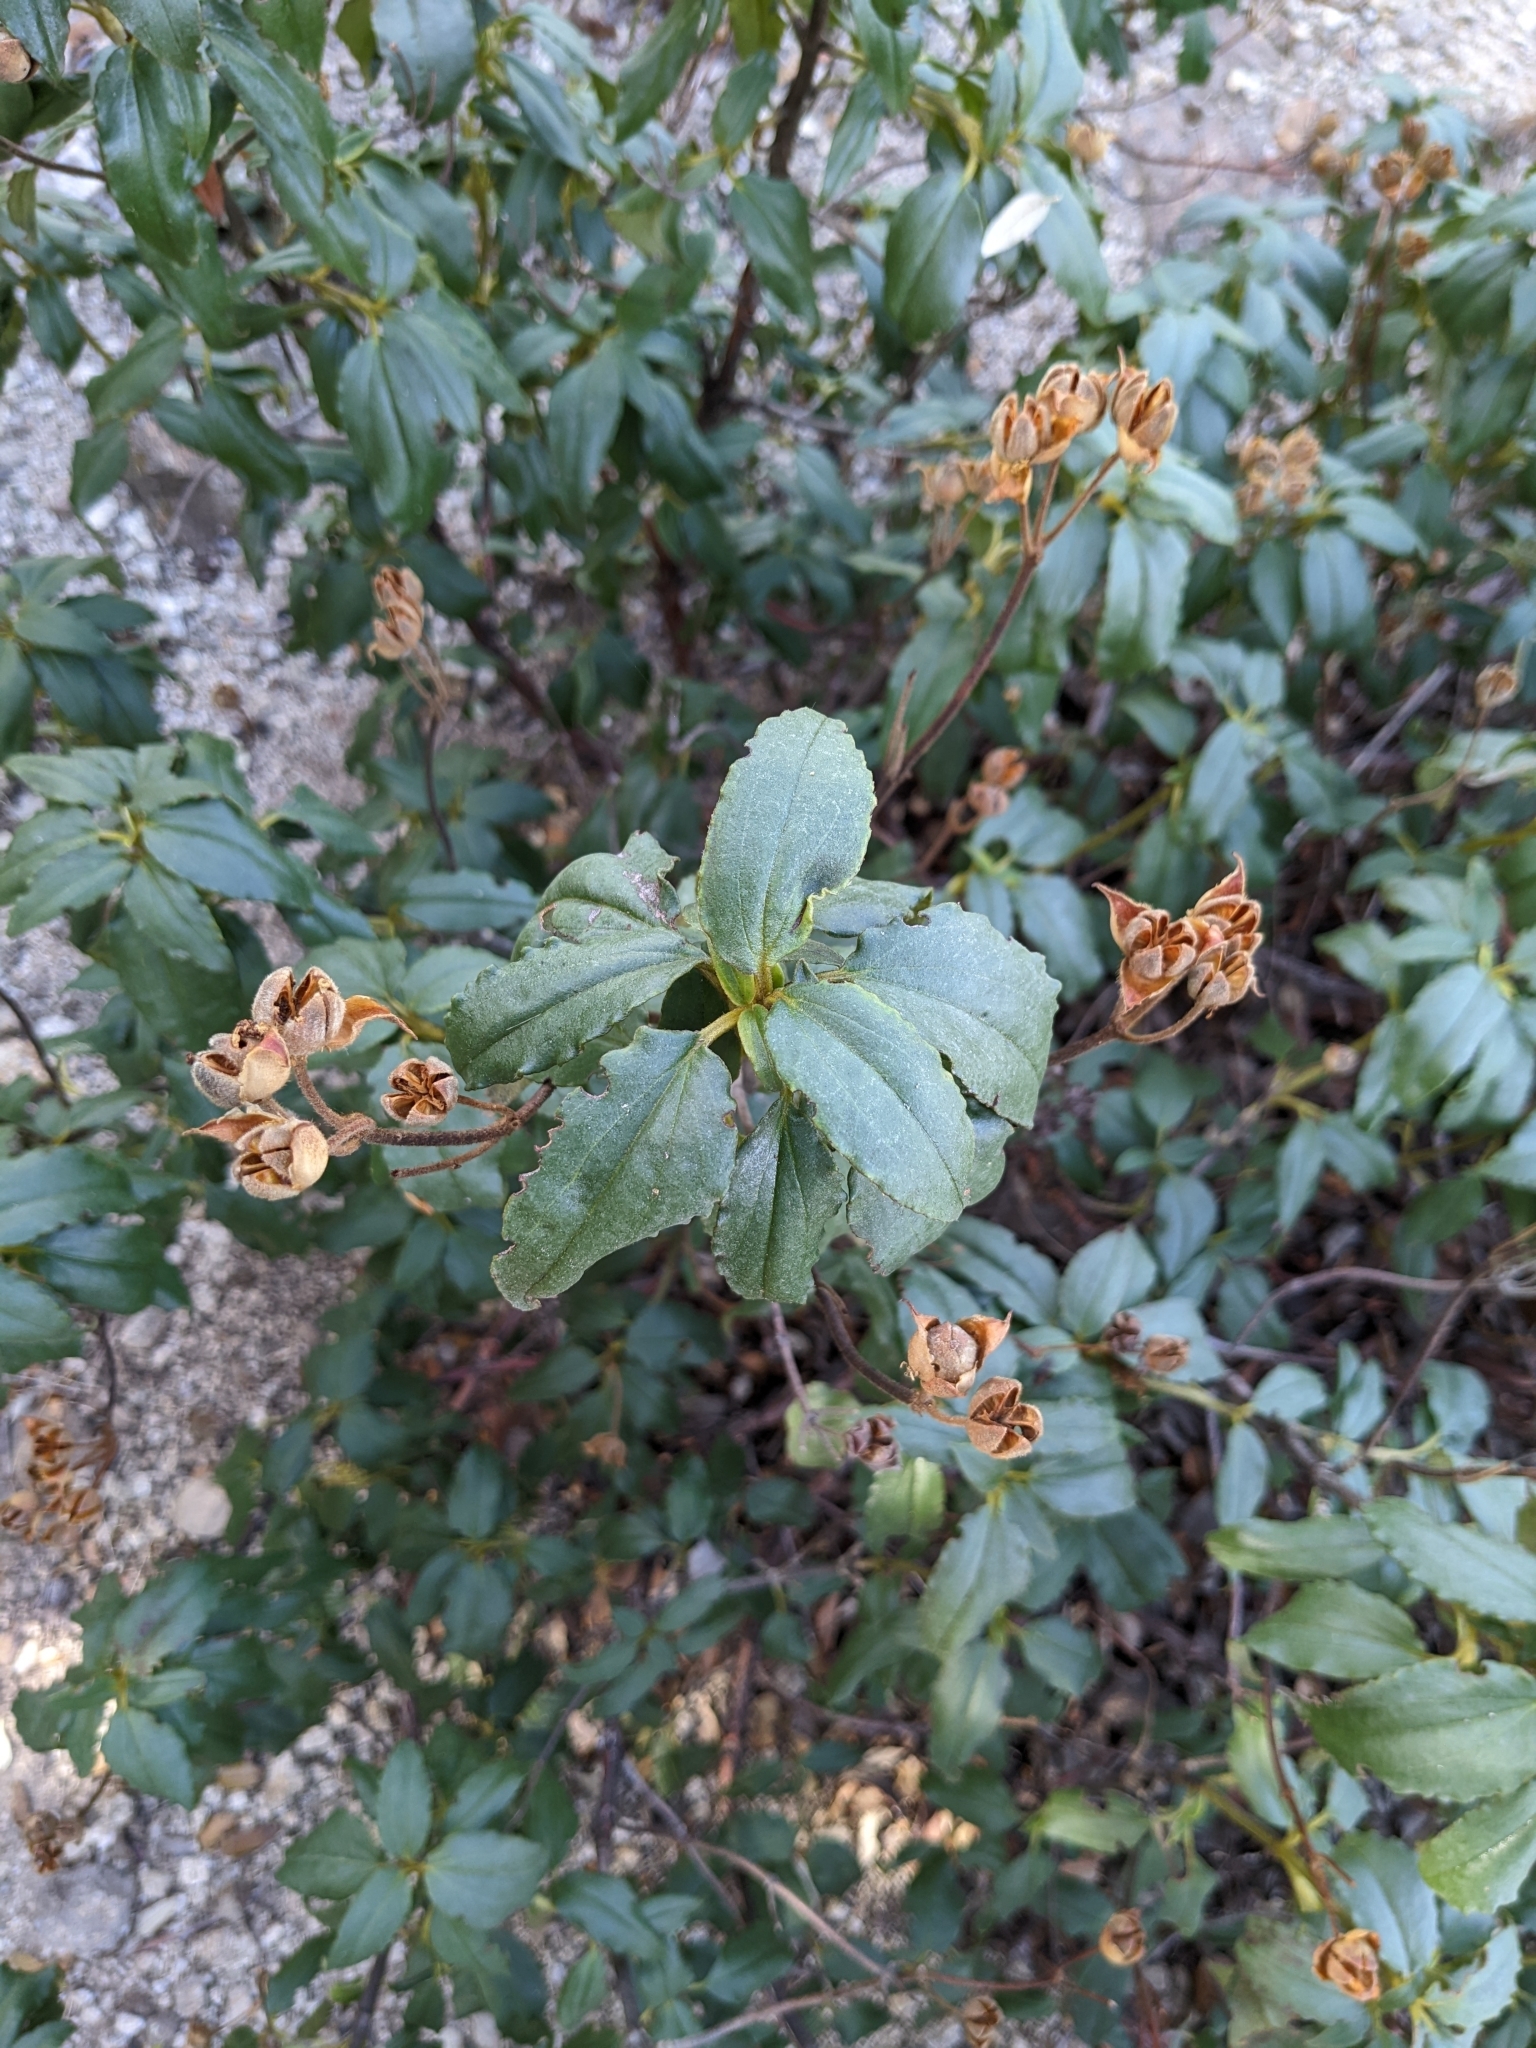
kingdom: Plantae
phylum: Tracheophyta
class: Magnoliopsida
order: Malvales
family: Cistaceae
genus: Cistus
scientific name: Cistus laurifolius
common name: Laurel-leaved cistus
